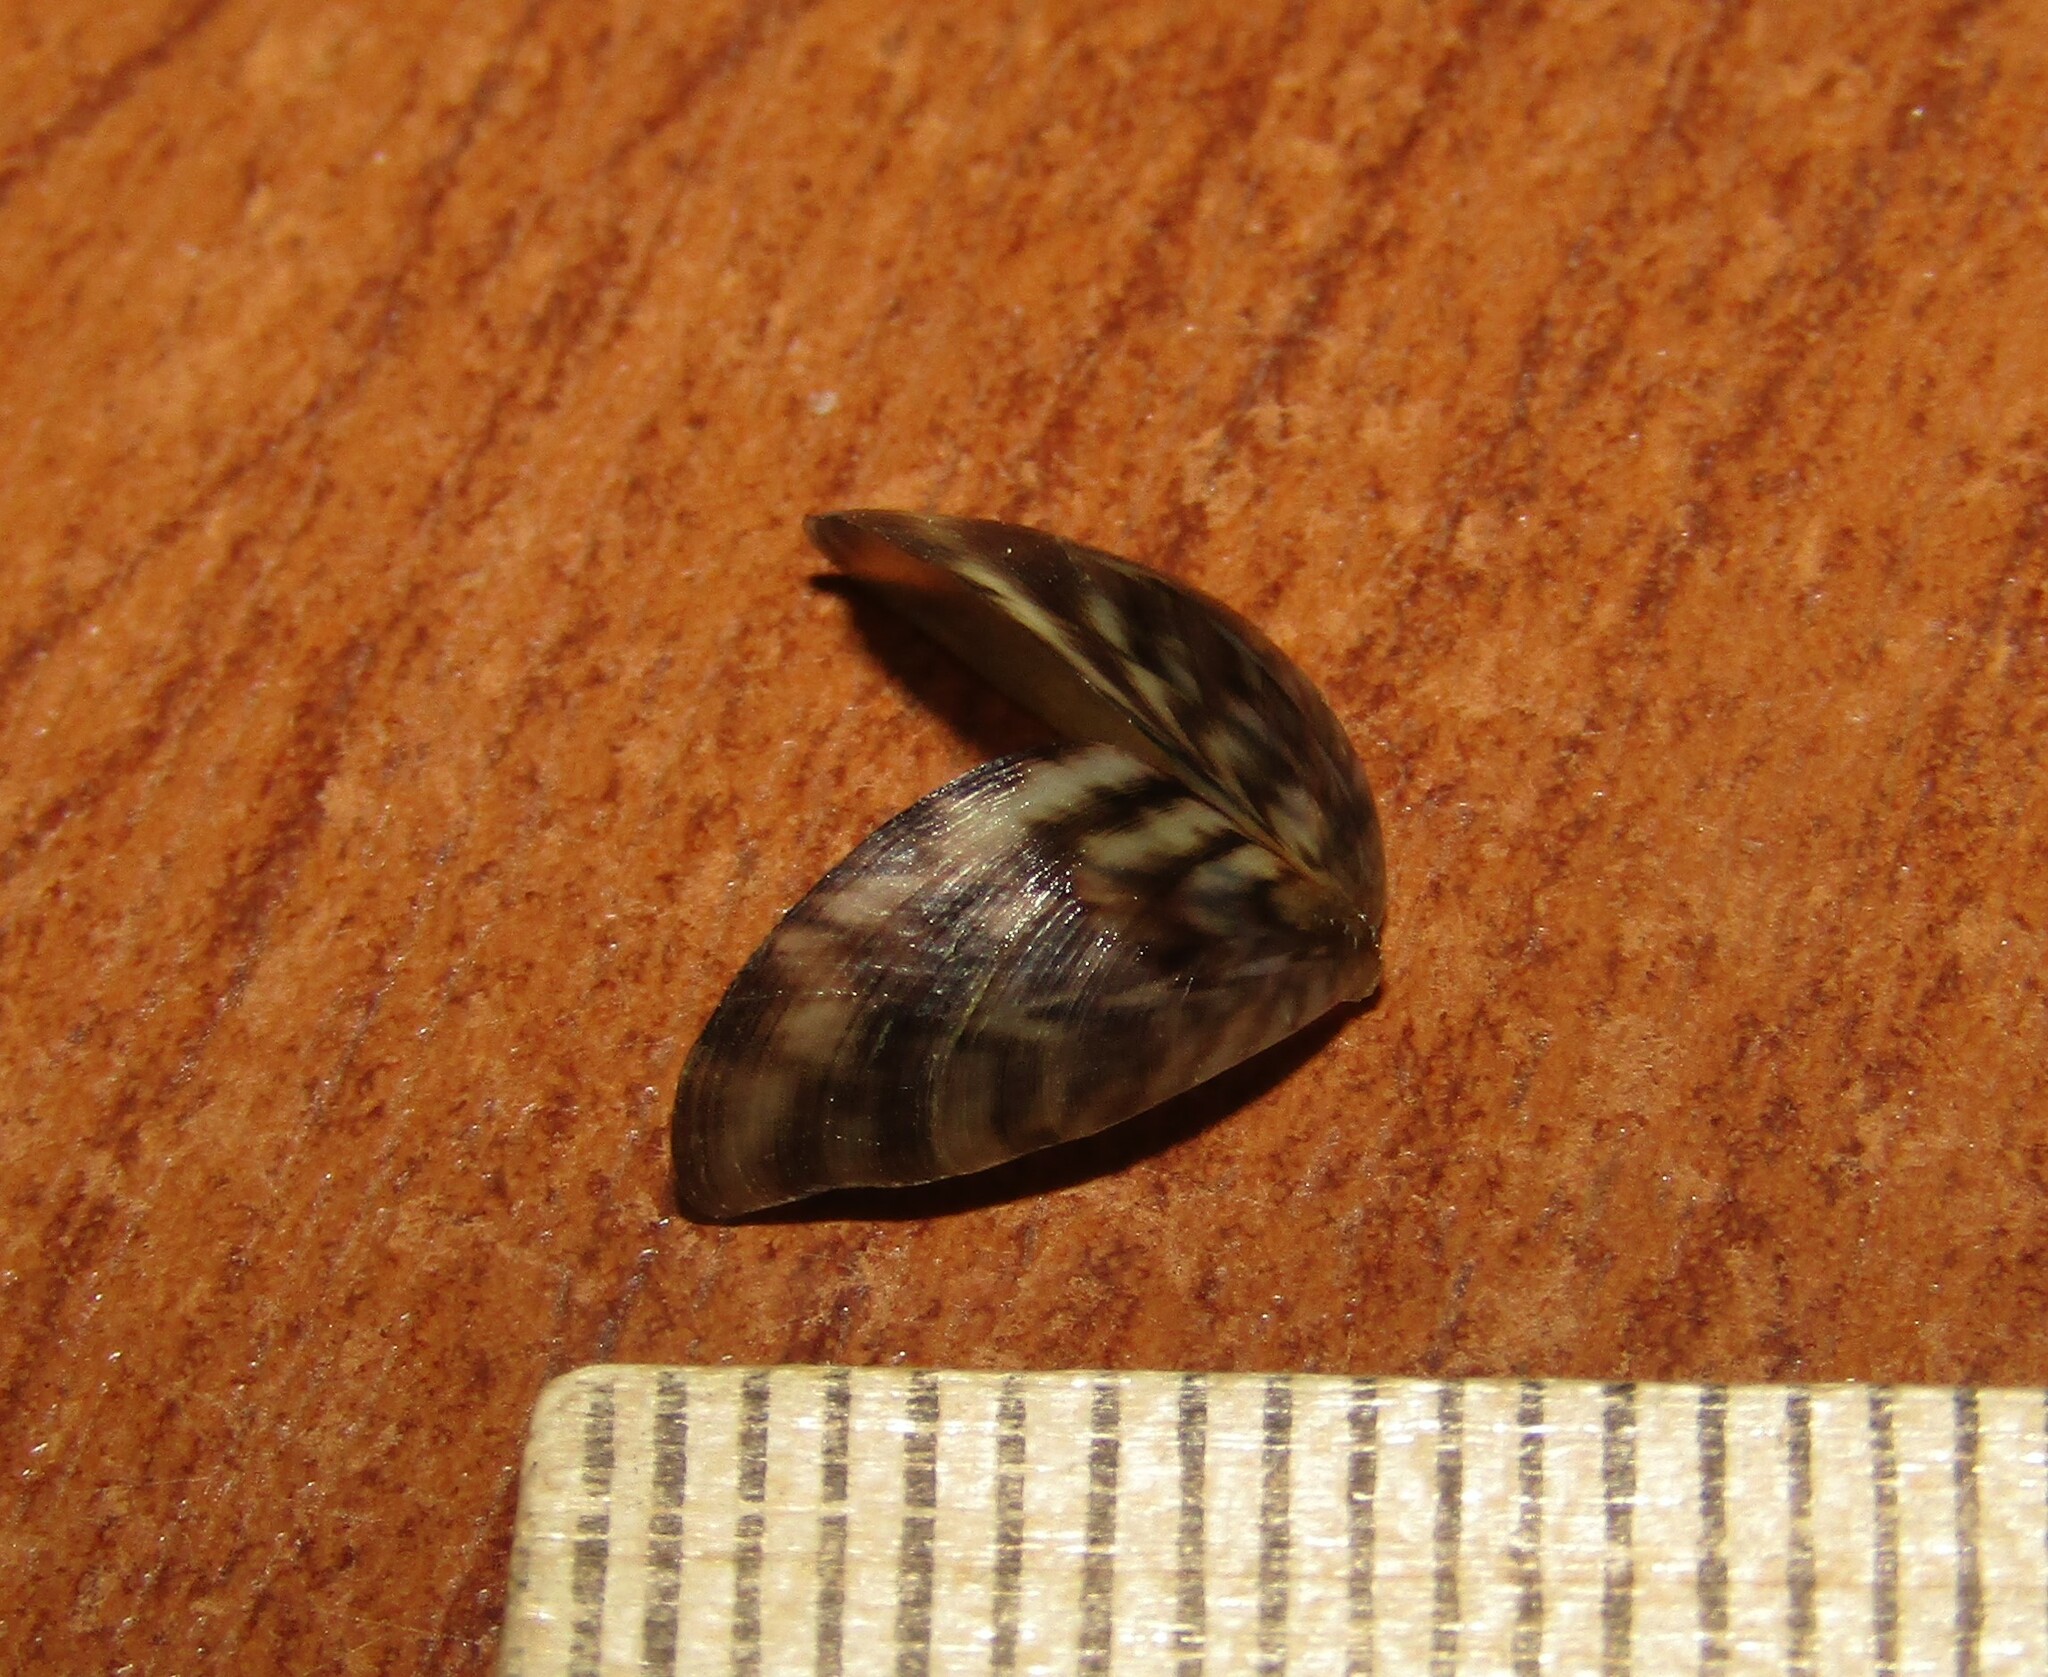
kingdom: Animalia
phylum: Mollusca
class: Bivalvia
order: Myida
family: Dreissenidae
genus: Dreissena
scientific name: Dreissena polymorpha
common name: Zebra mussel
